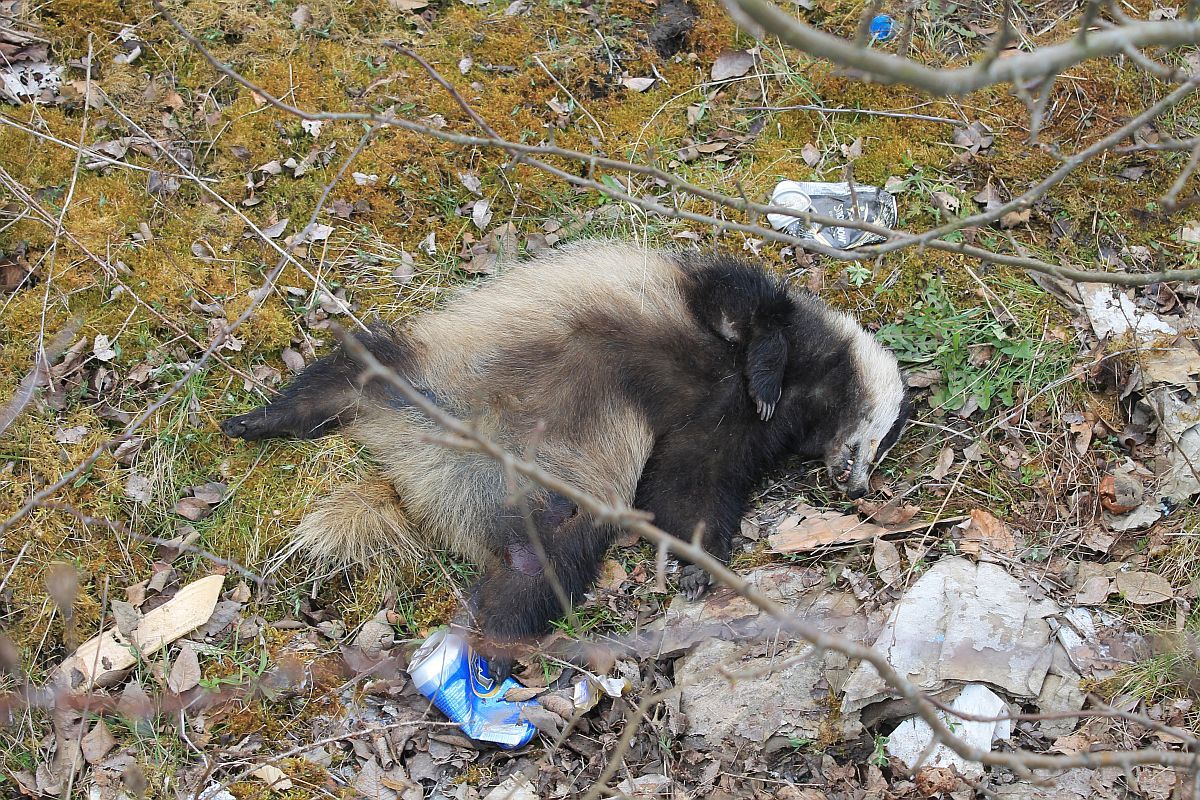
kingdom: Animalia
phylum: Chordata
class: Mammalia
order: Carnivora
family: Mustelidae
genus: Meles
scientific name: Meles meles
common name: Eurasian badger
